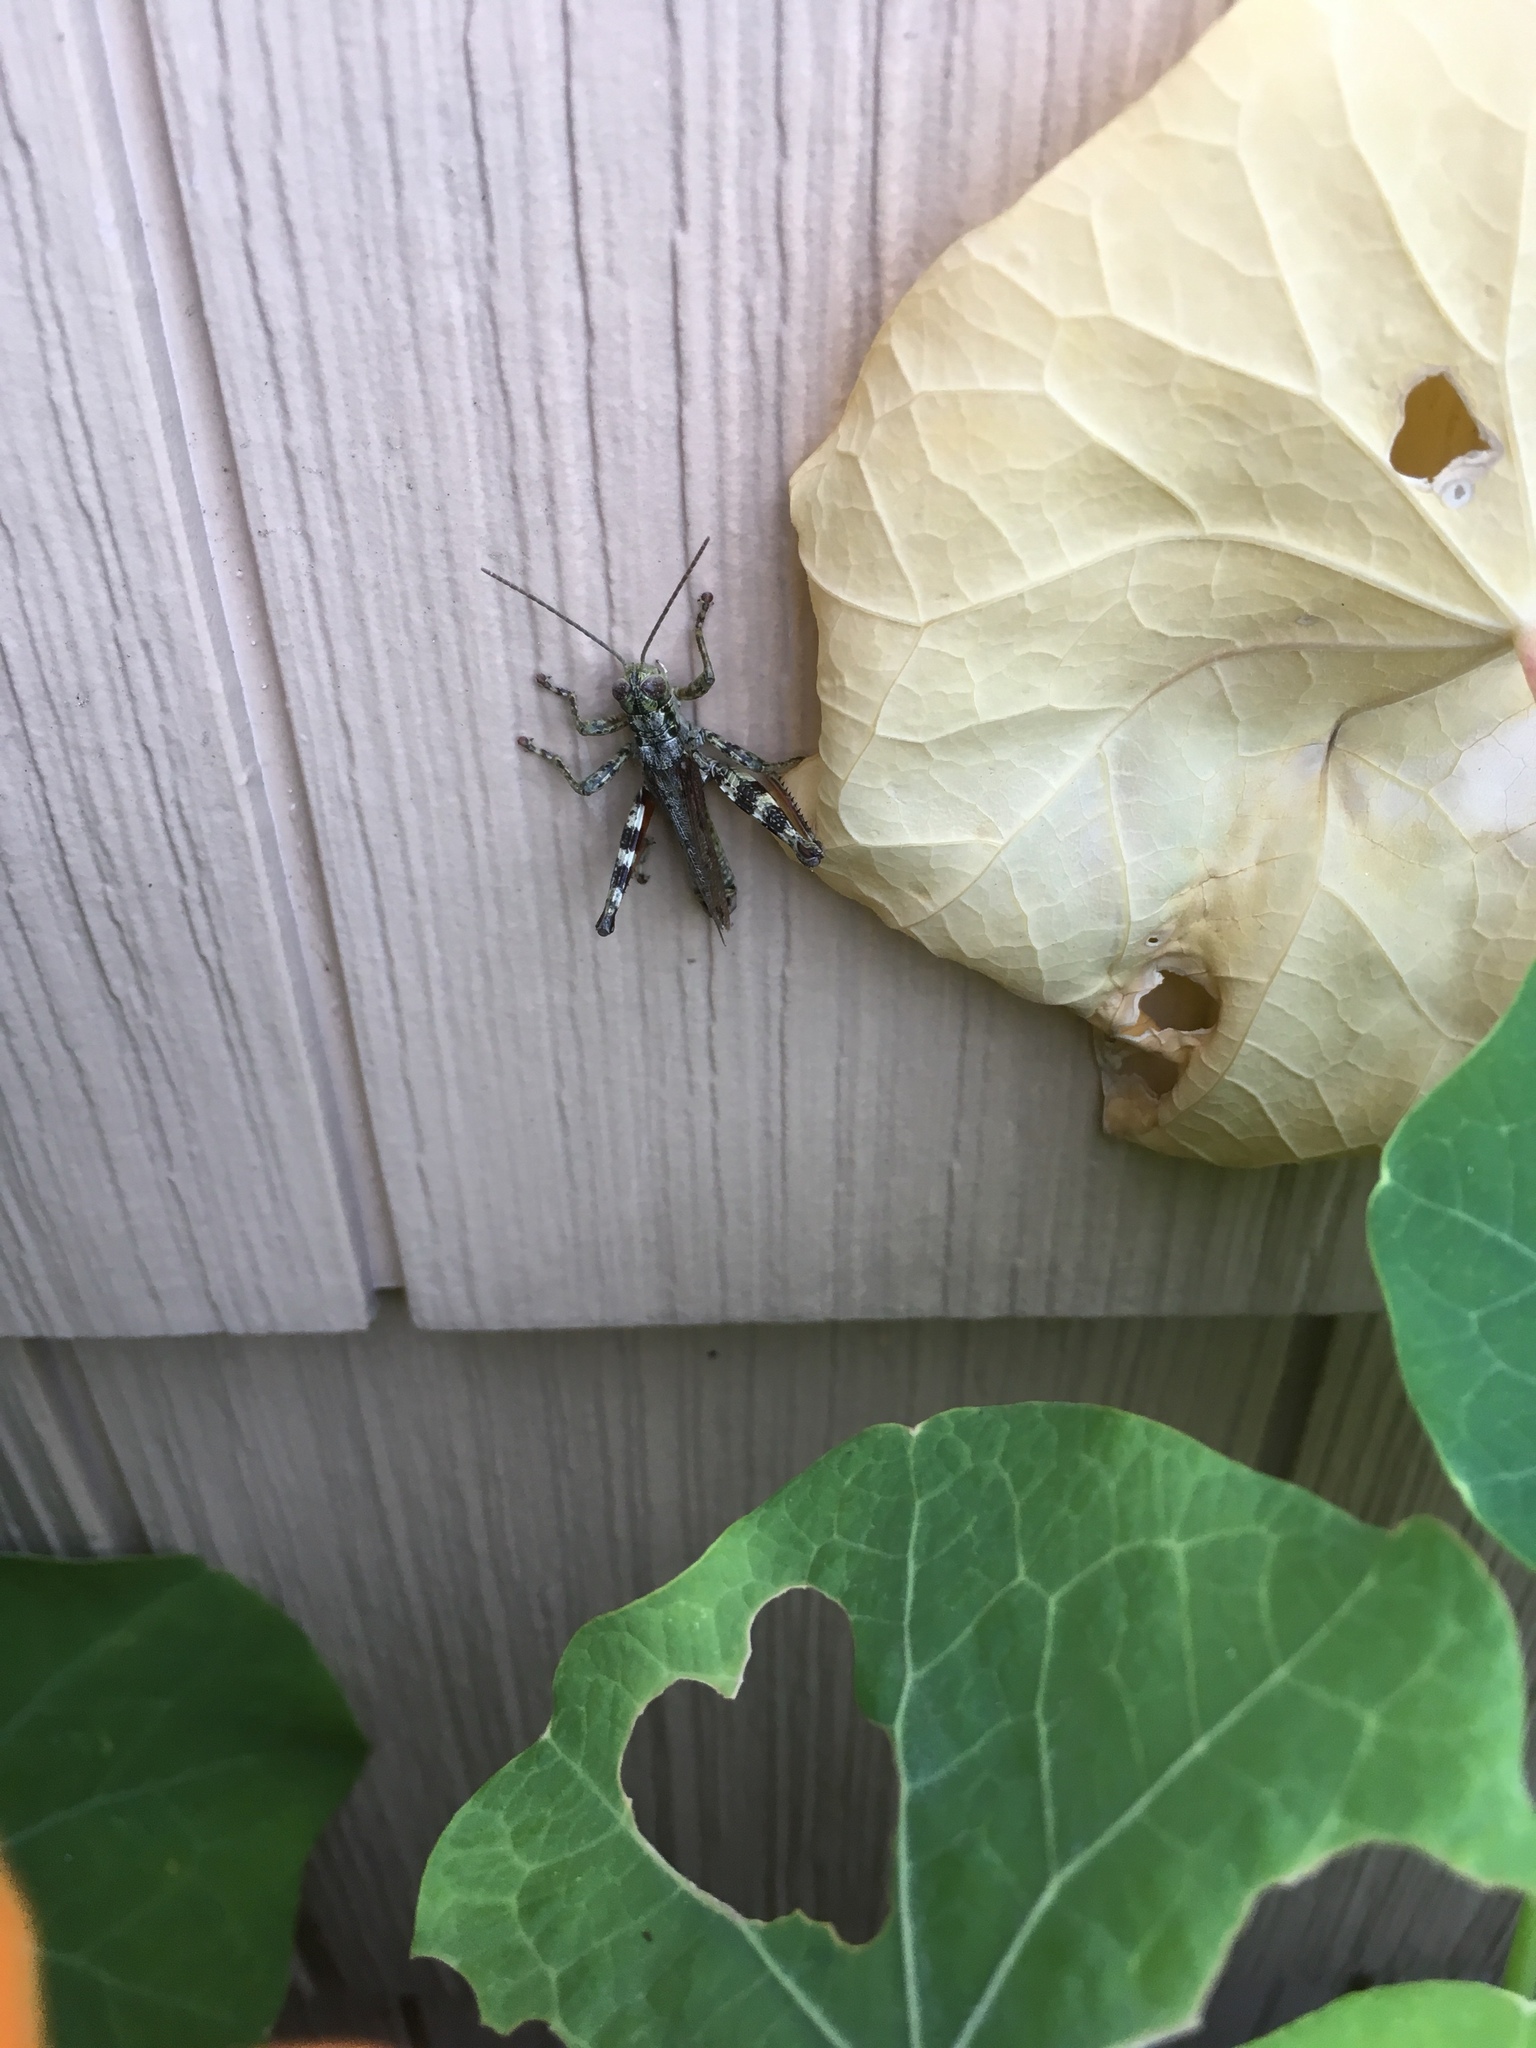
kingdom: Animalia
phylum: Arthropoda
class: Insecta
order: Orthoptera
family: Acrididae
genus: Melanoplus
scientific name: Melanoplus punctulatus
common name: Pine-tree spur-throat grasshopper
